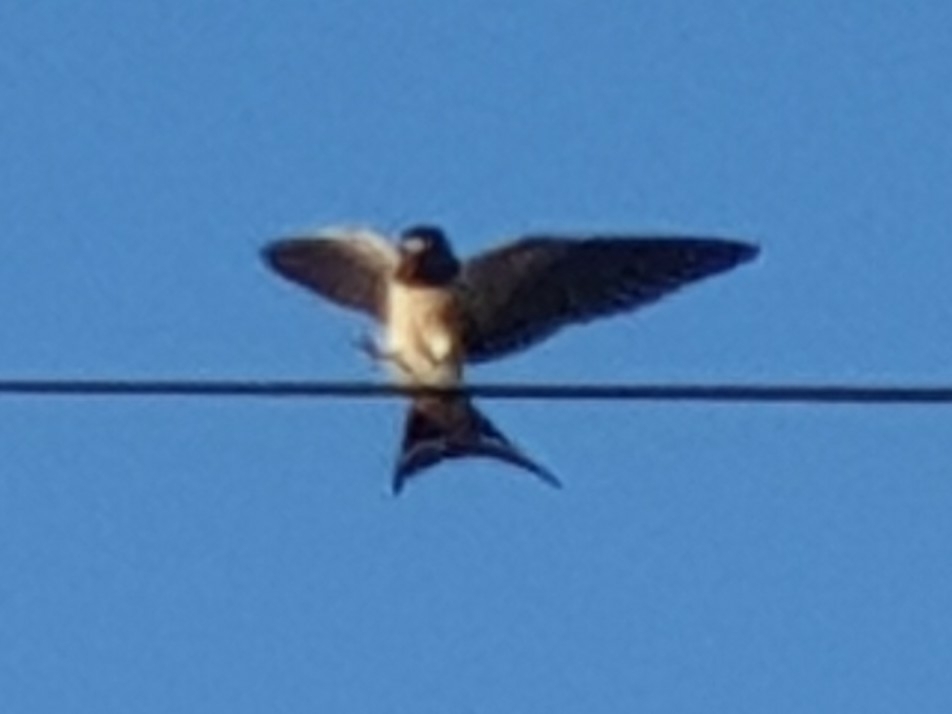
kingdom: Animalia
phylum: Chordata
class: Aves
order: Passeriformes
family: Hirundinidae
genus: Hirundo
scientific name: Hirundo rustica
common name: Barn swallow
